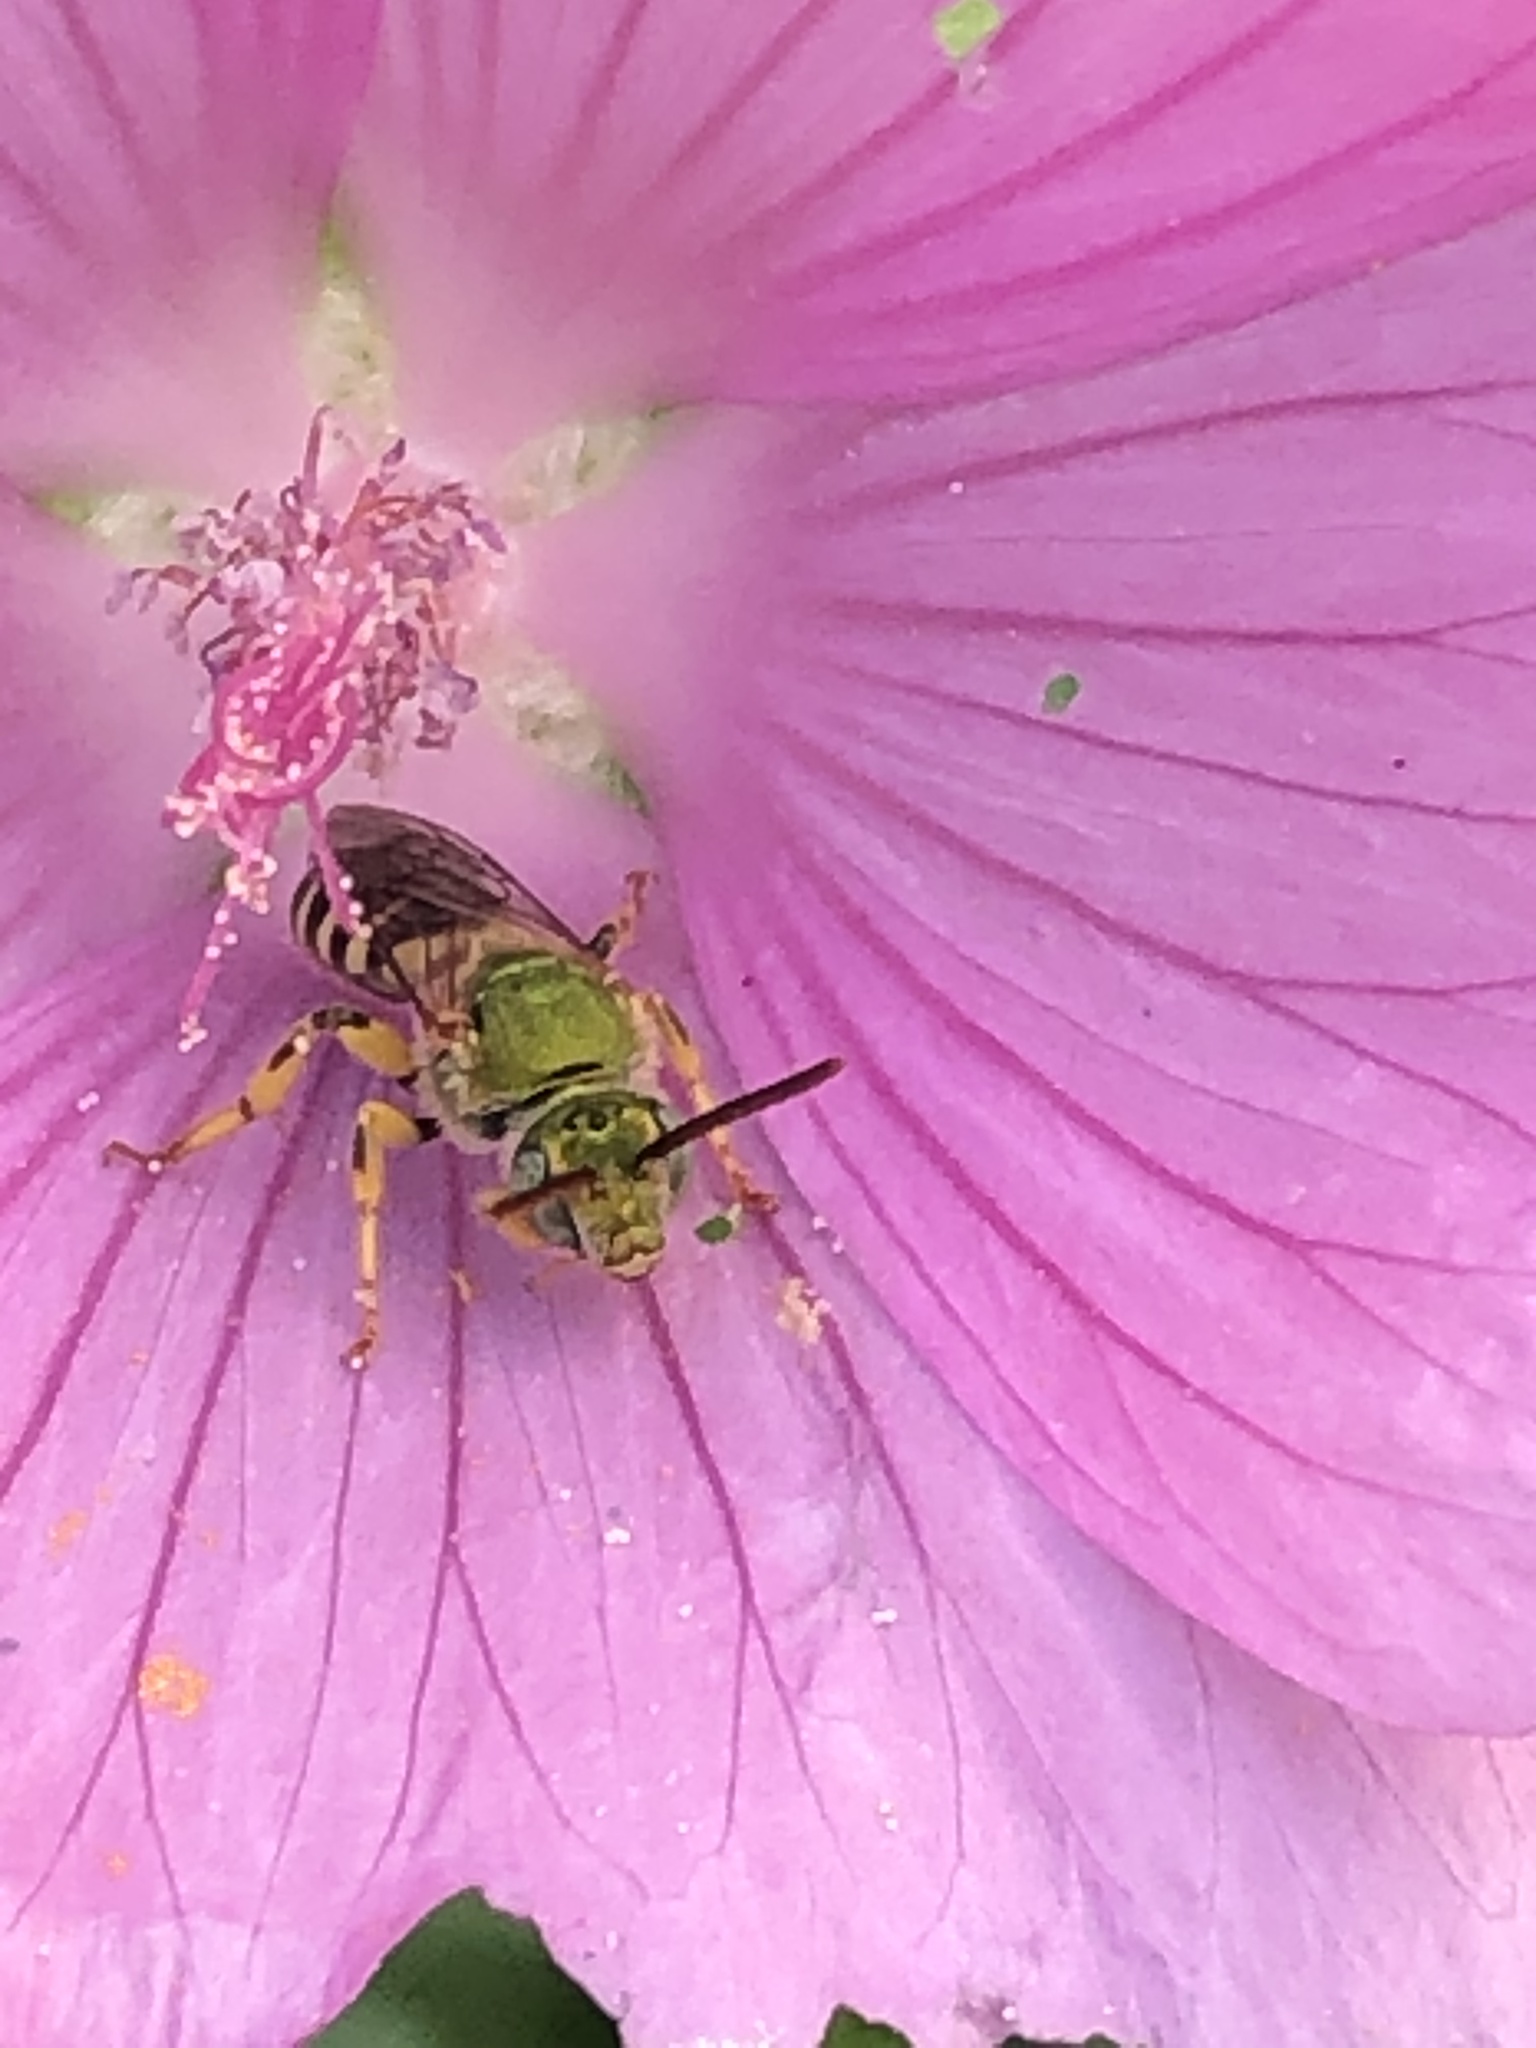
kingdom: Animalia
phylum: Arthropoda
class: Insecta
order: Hymenoptera
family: Halictidae
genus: Agapostemon
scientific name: Agapostemon virescens
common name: Bicolored striped sweat bee
